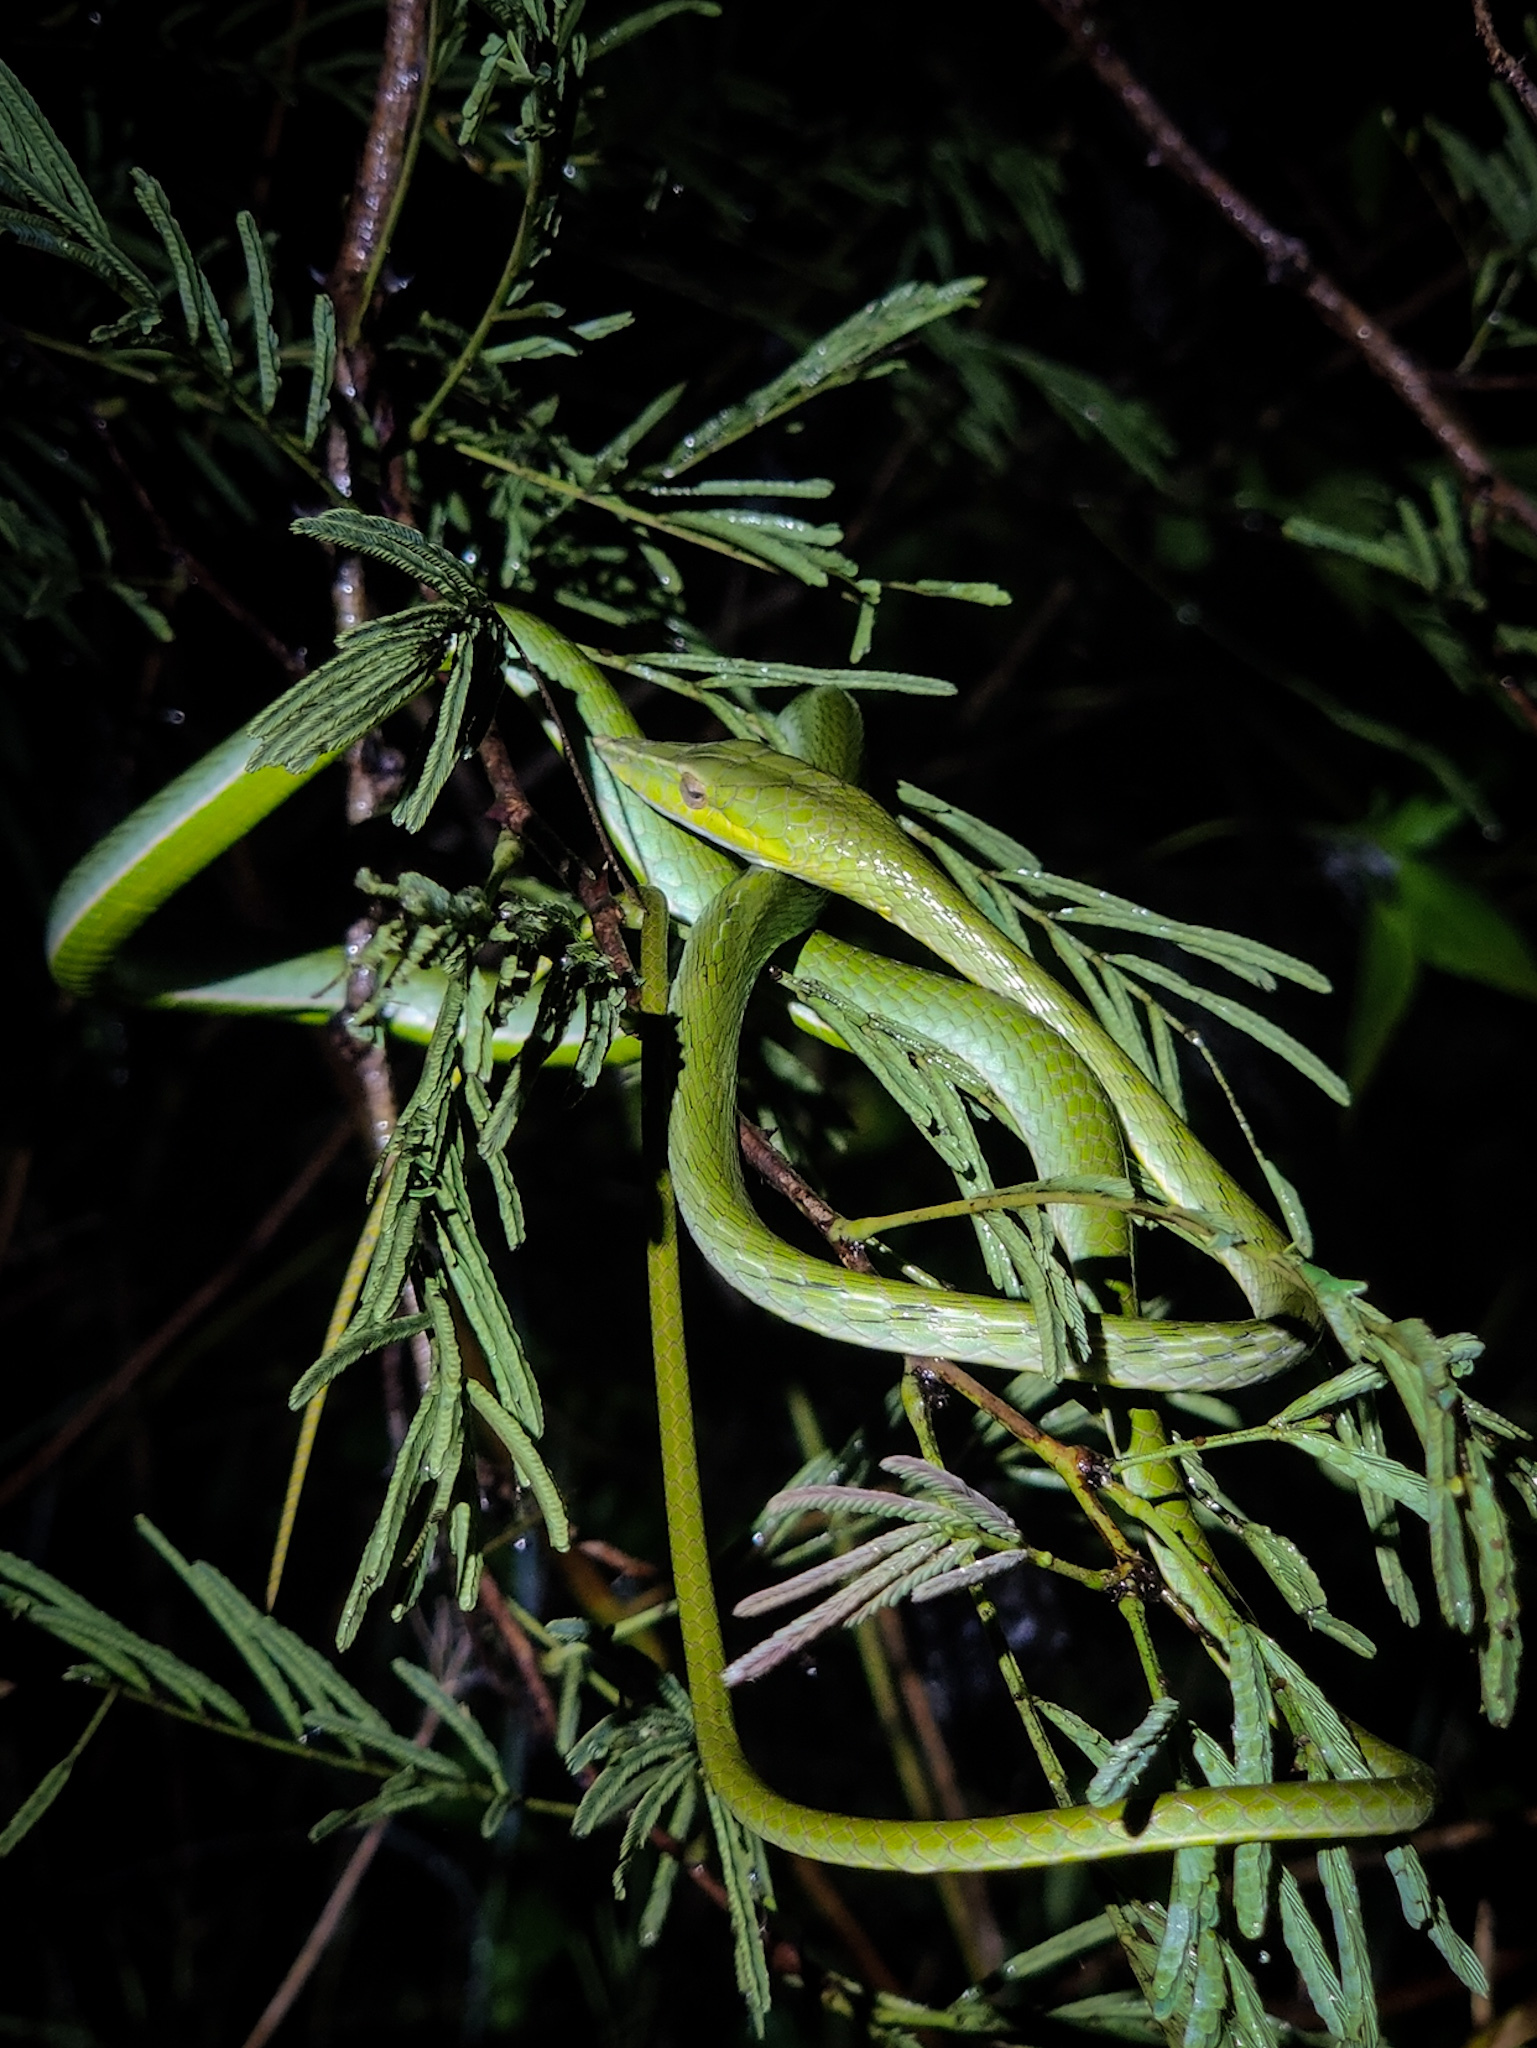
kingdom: Animalia
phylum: Chordata
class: Squamata
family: Colubridae
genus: Ahaetulla
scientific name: Ahaetulla oxyrhyncha
